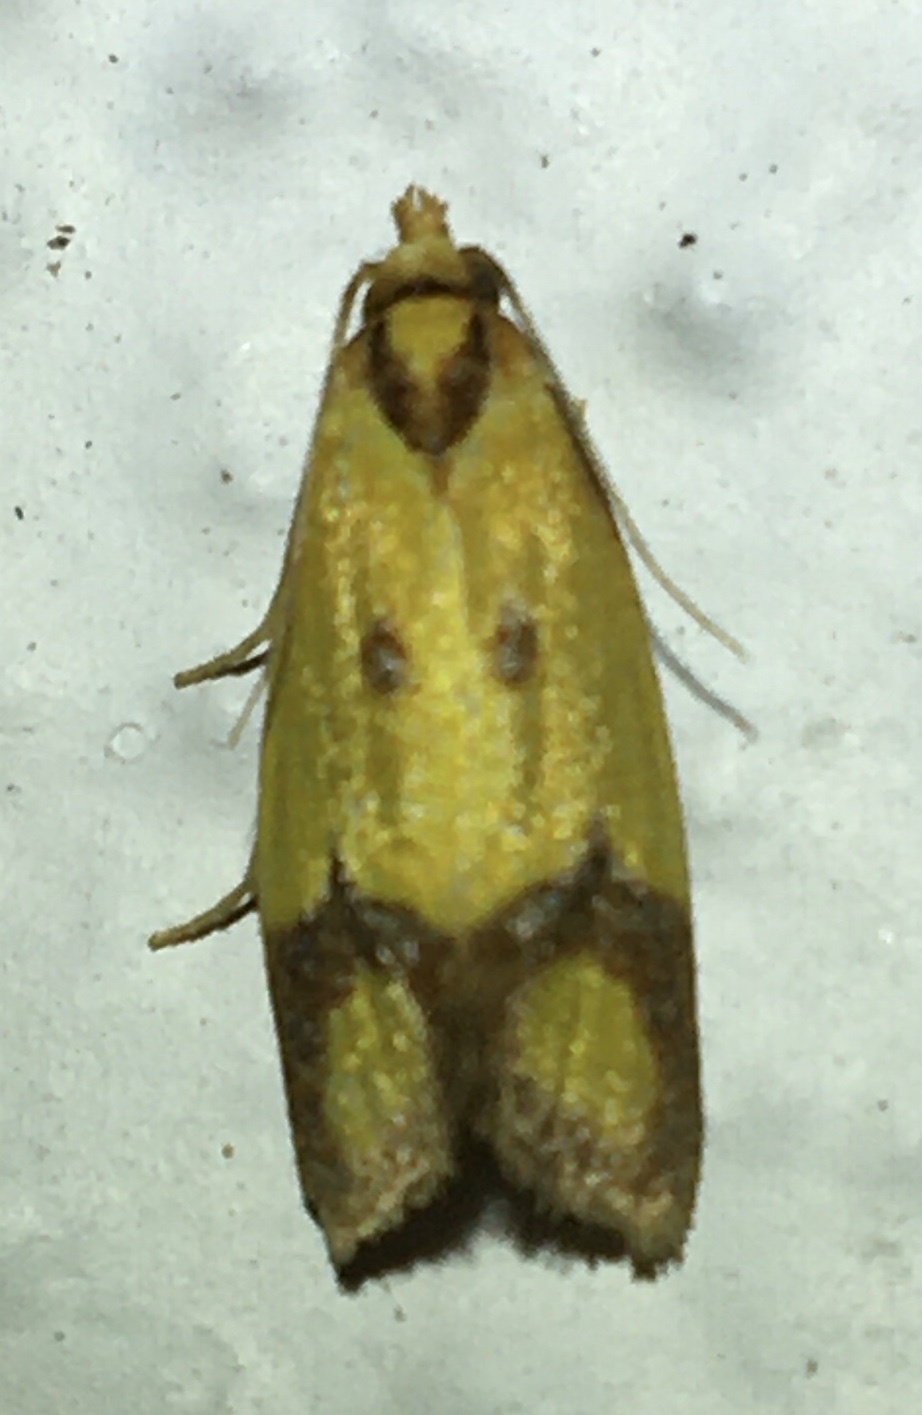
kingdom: Animalia
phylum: Arthropoda
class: Insecta
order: Lepidoptera
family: Tortricidae
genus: Agapeta
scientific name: Agapeta zoegana
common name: Sulfur knapweed root moth
